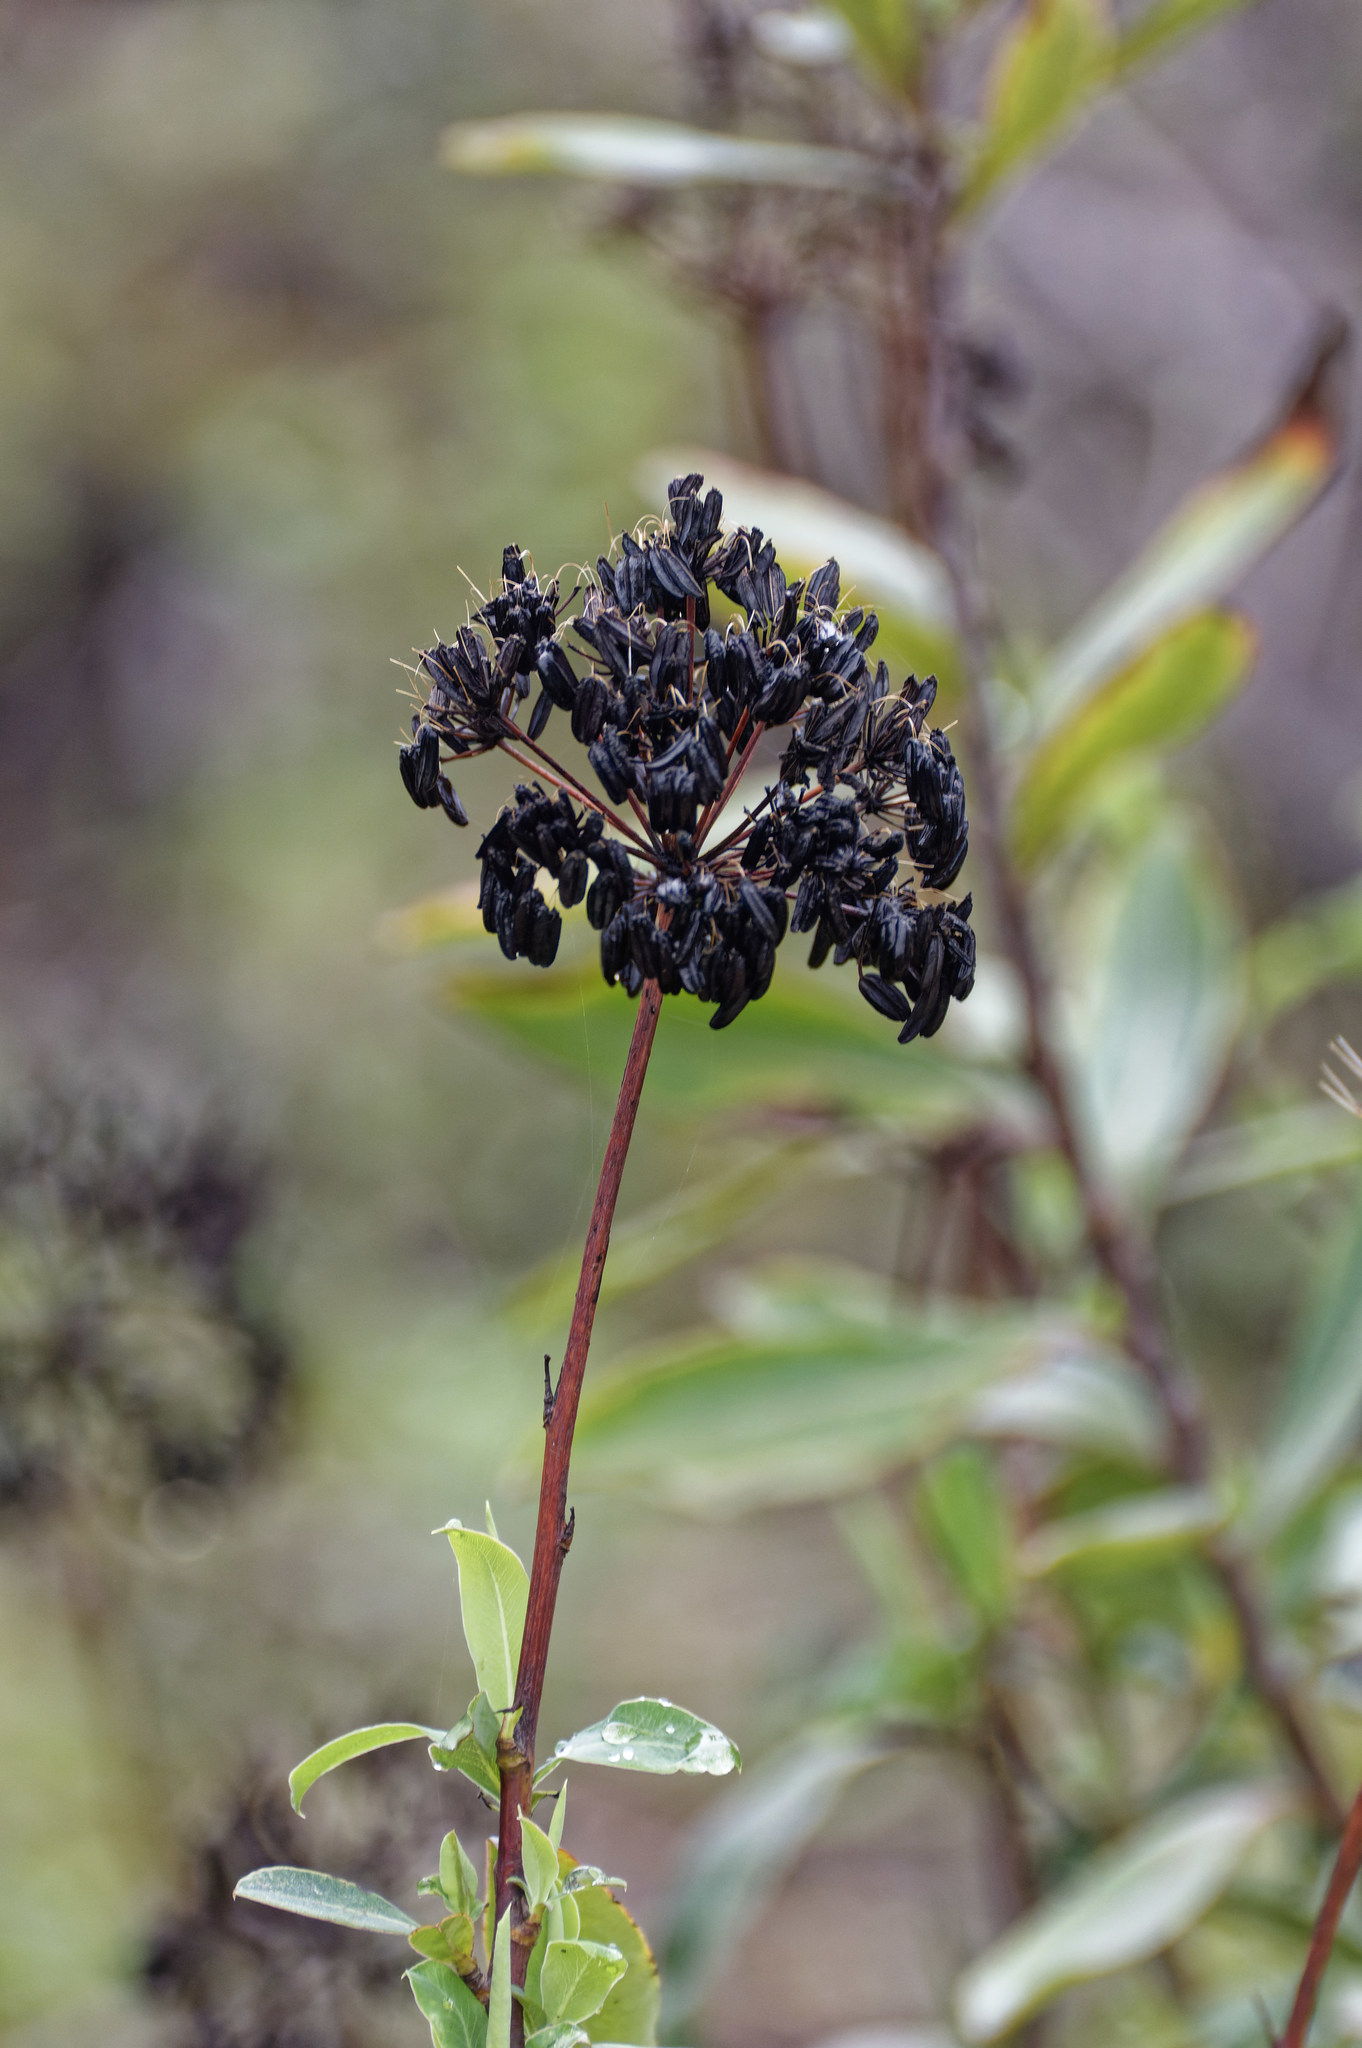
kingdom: Plantae
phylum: Tracheophyta
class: Magnoliopsida
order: Apiales
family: Apiaceae
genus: Bupleurum
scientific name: Bupleurum fruticosum
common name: Shrubby hare's-ear
